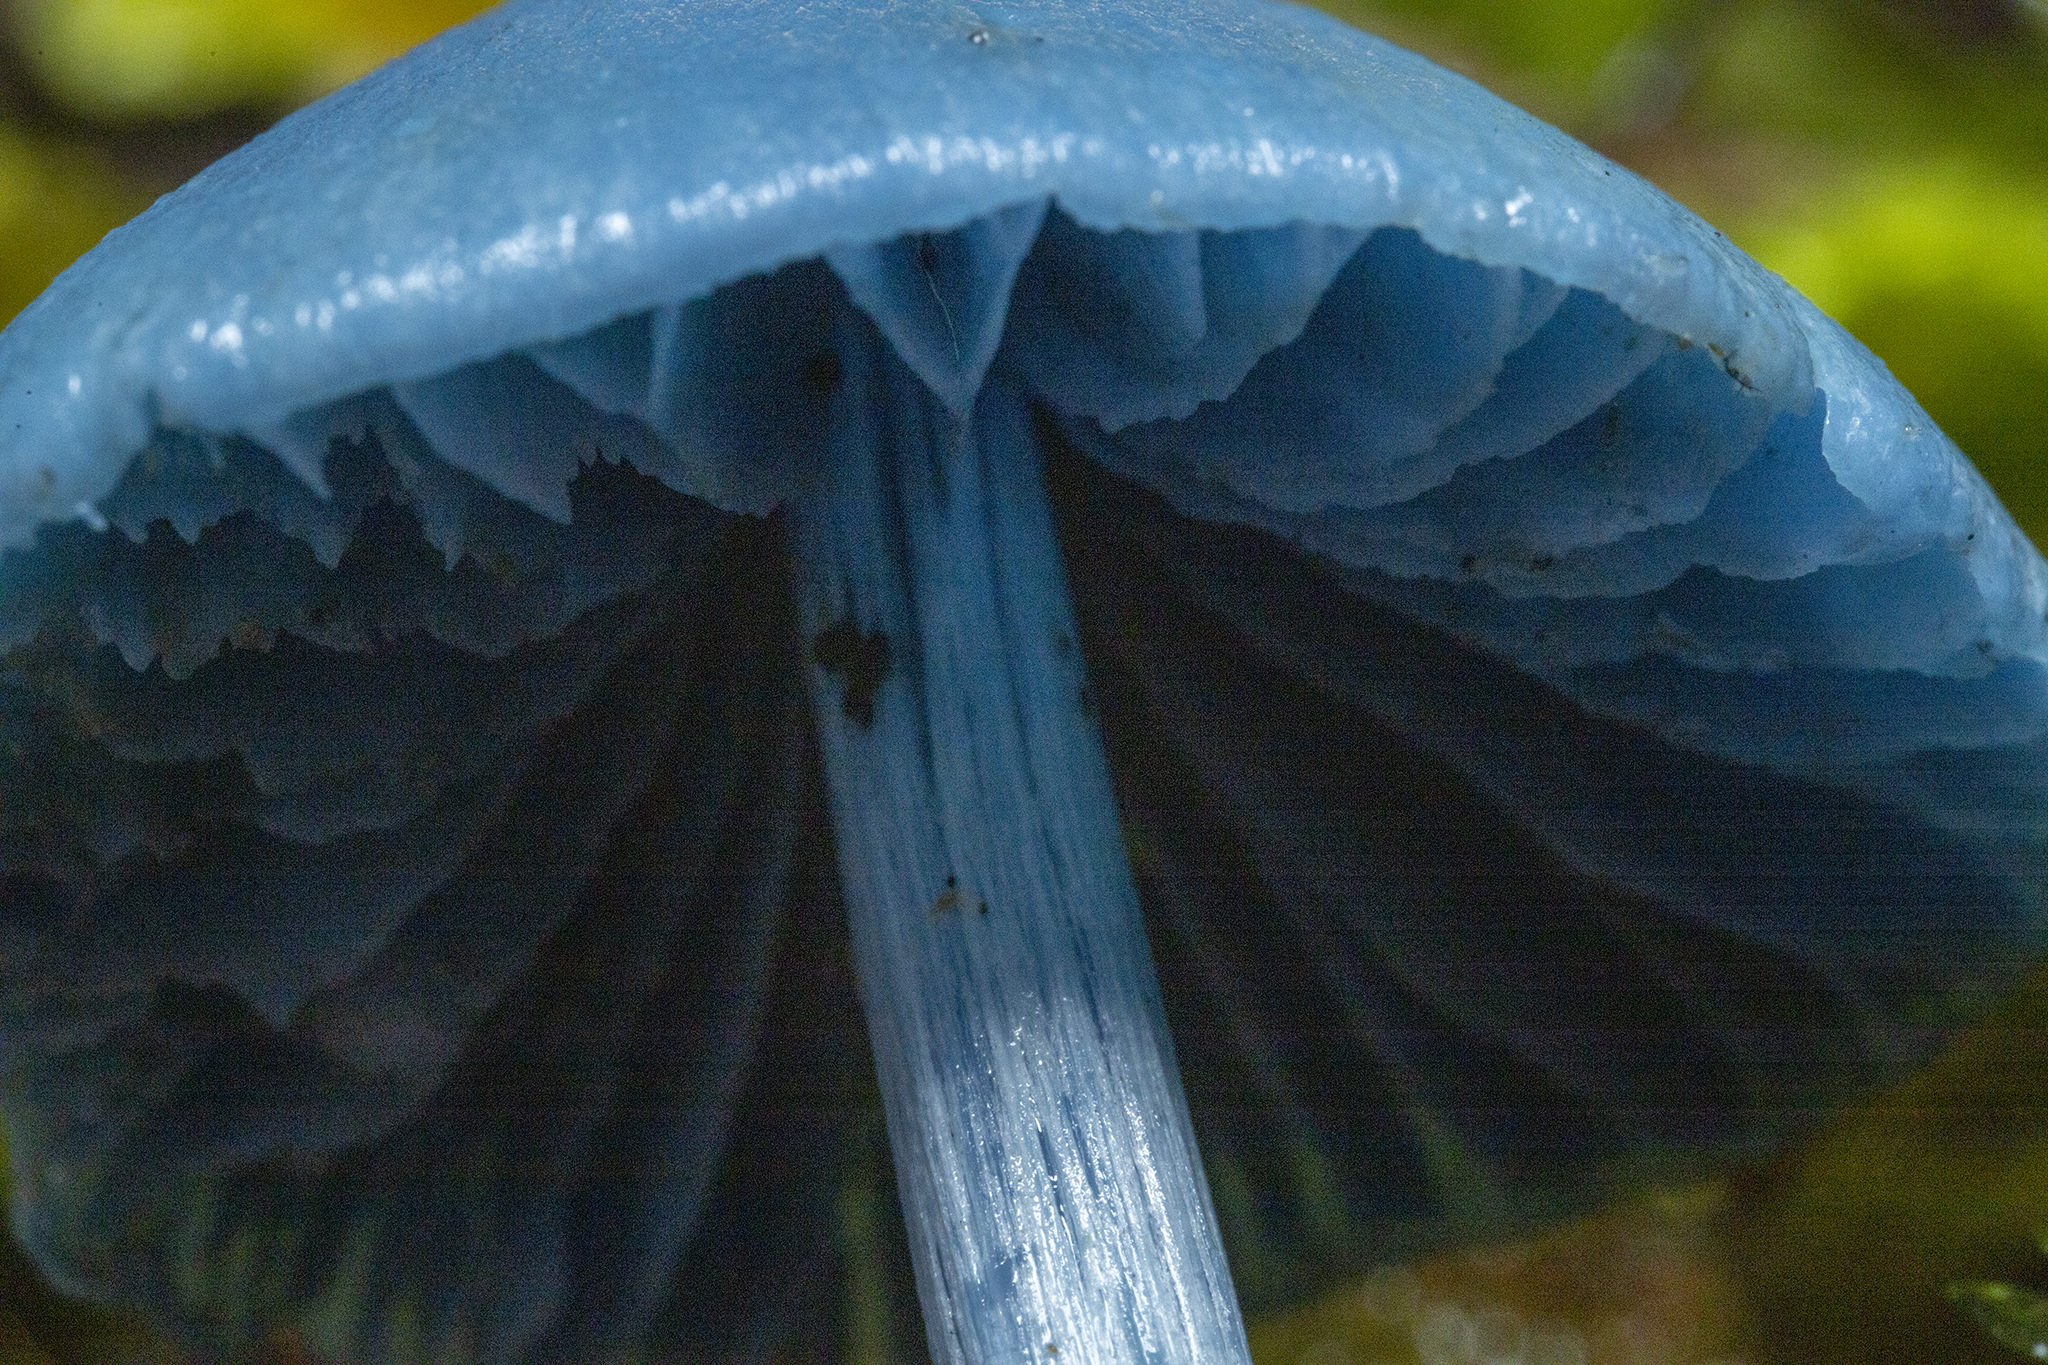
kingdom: Fungi
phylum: Basidiomycota
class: Agaricomycetes
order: Agaricales
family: Entolomataceae
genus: Entoloma
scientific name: Entoloma hochstetteri
